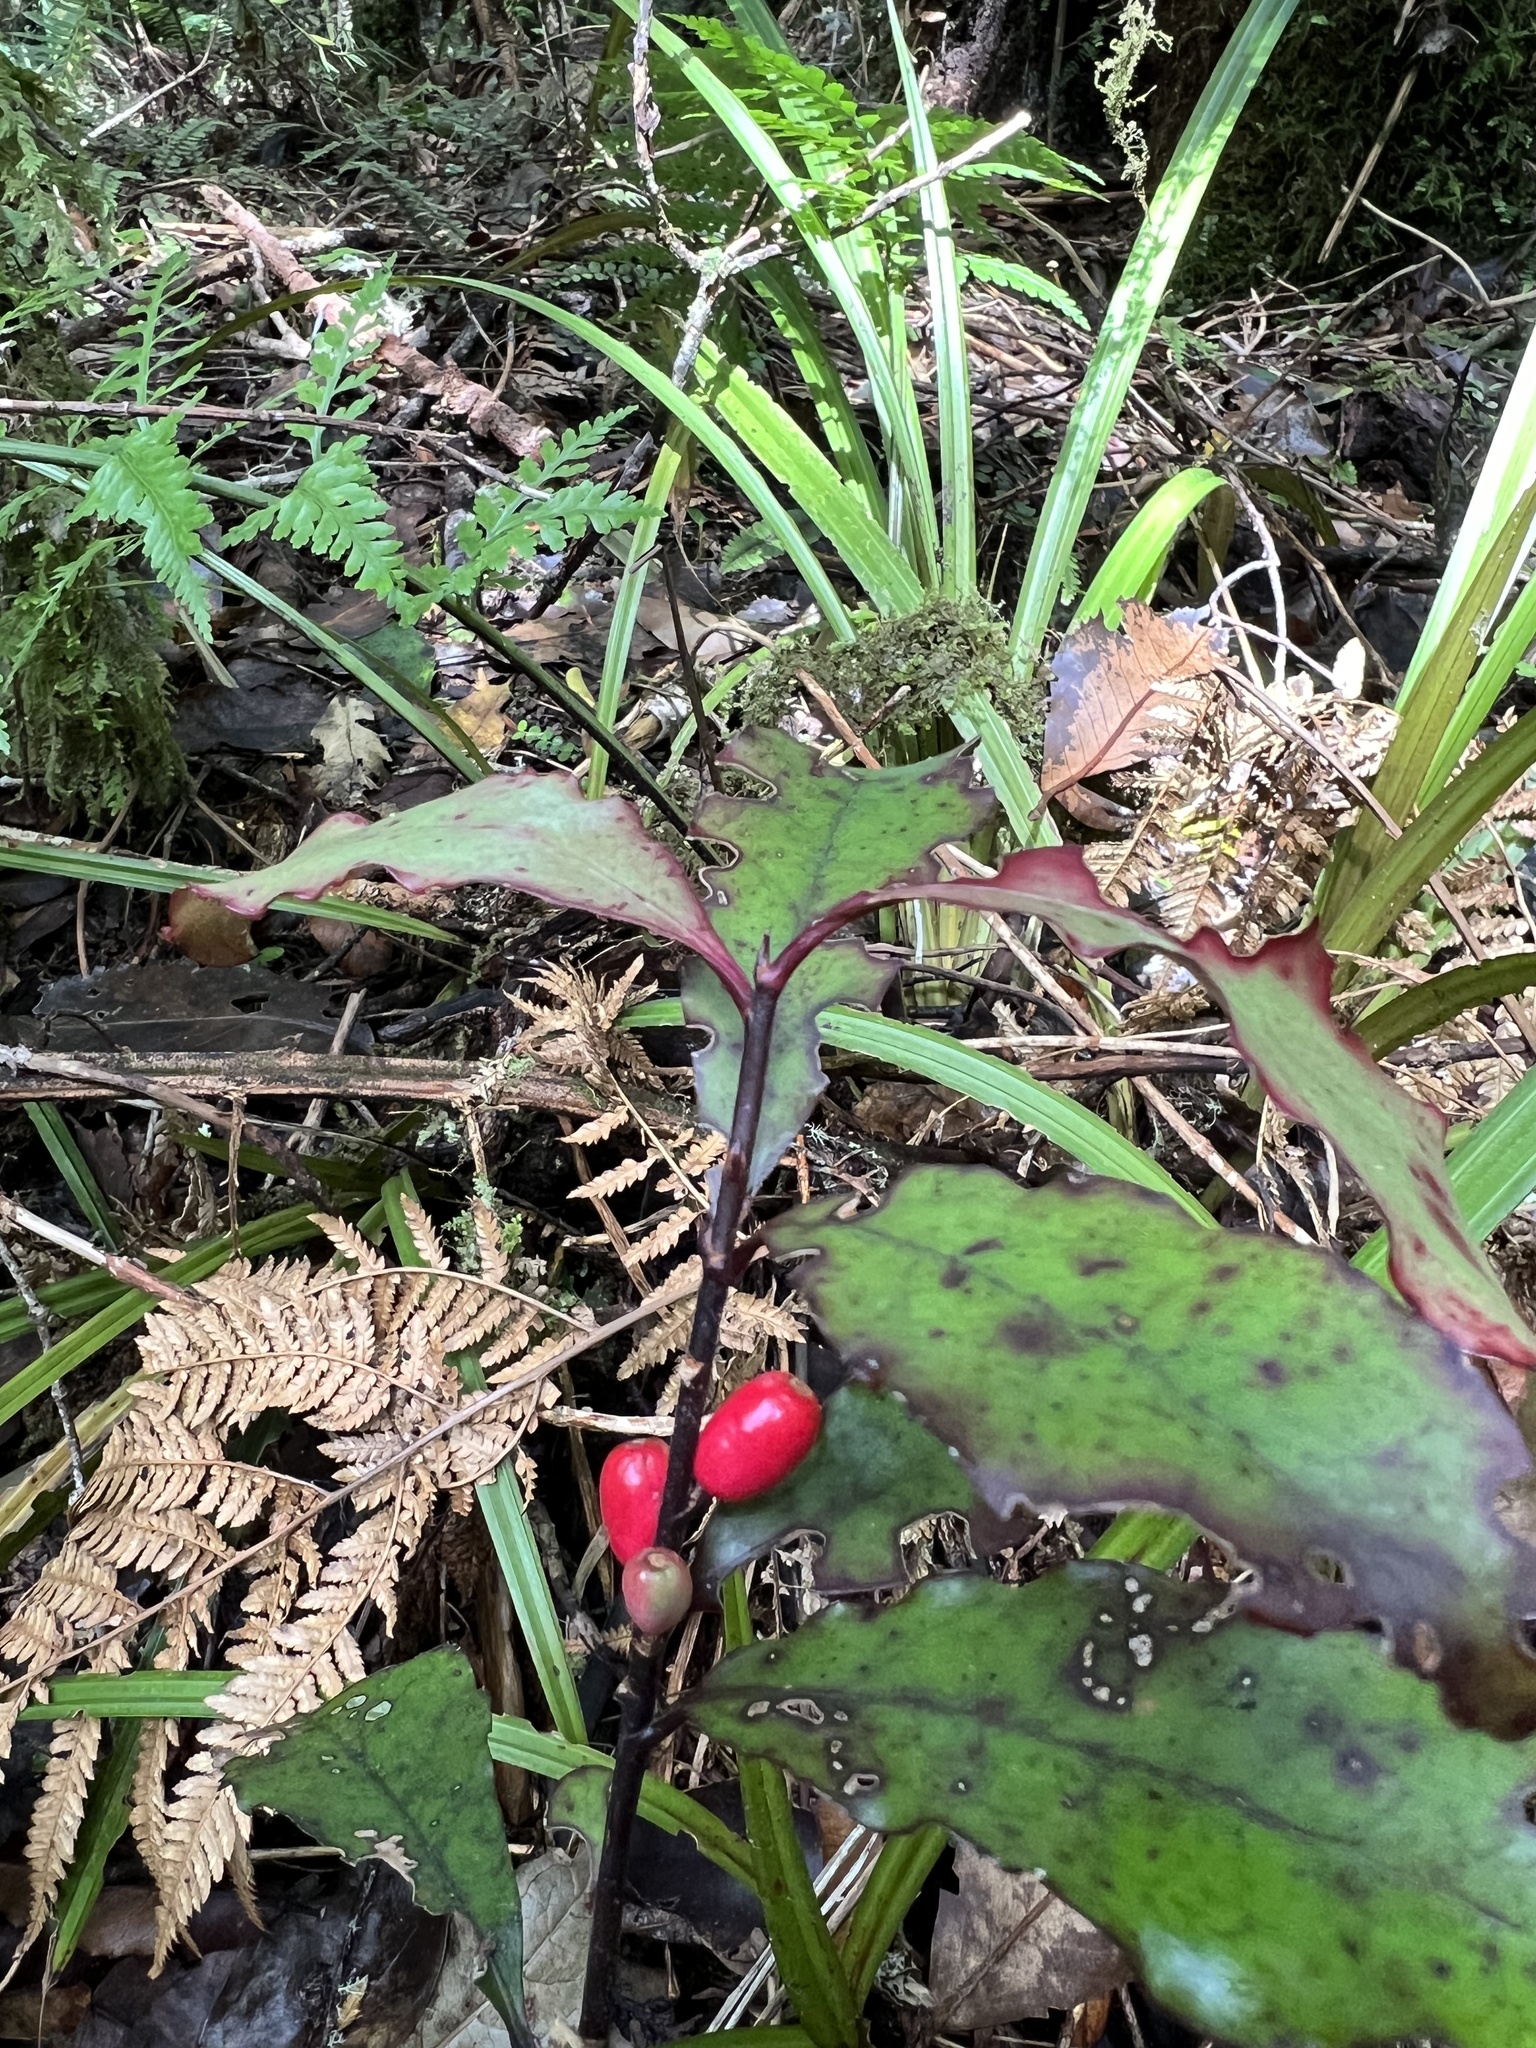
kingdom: Plantae
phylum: Tracheophyta
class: Magnoliopsida
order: Asterales
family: Alseuosmiaceae
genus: Alseuosmia
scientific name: Alseuosmia pusilla
